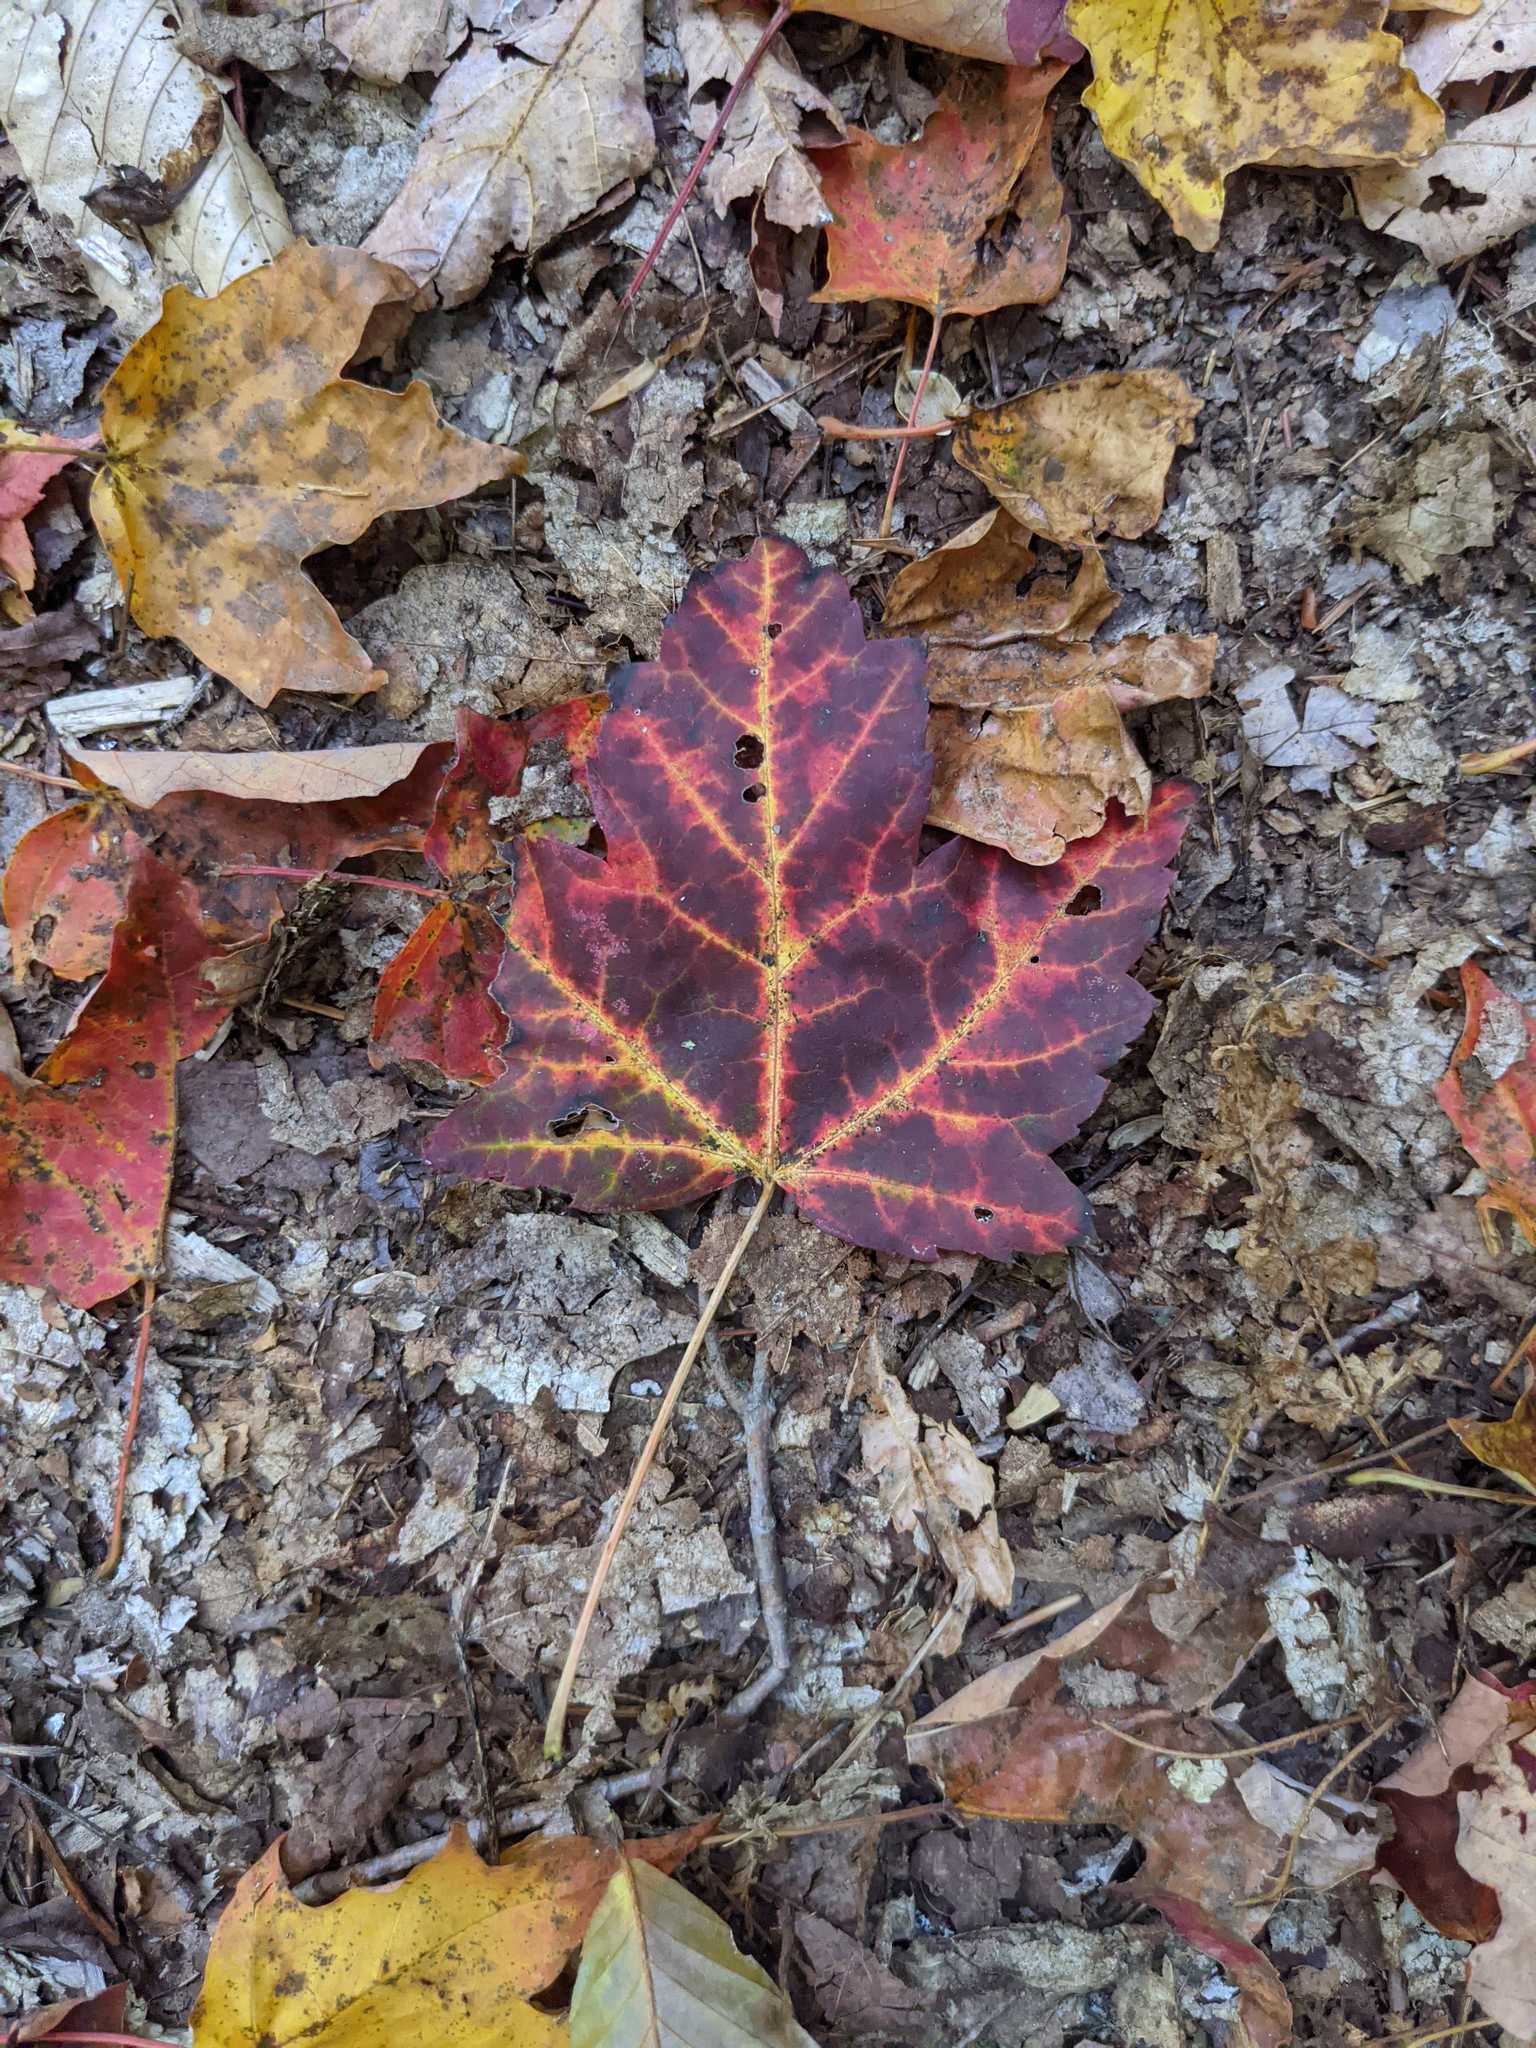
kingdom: Plantae
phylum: Tracheophyta
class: Magnoliopsida
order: Sapindales
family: Sapindaceae
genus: Acer
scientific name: Acer rubrum
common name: Red maple
